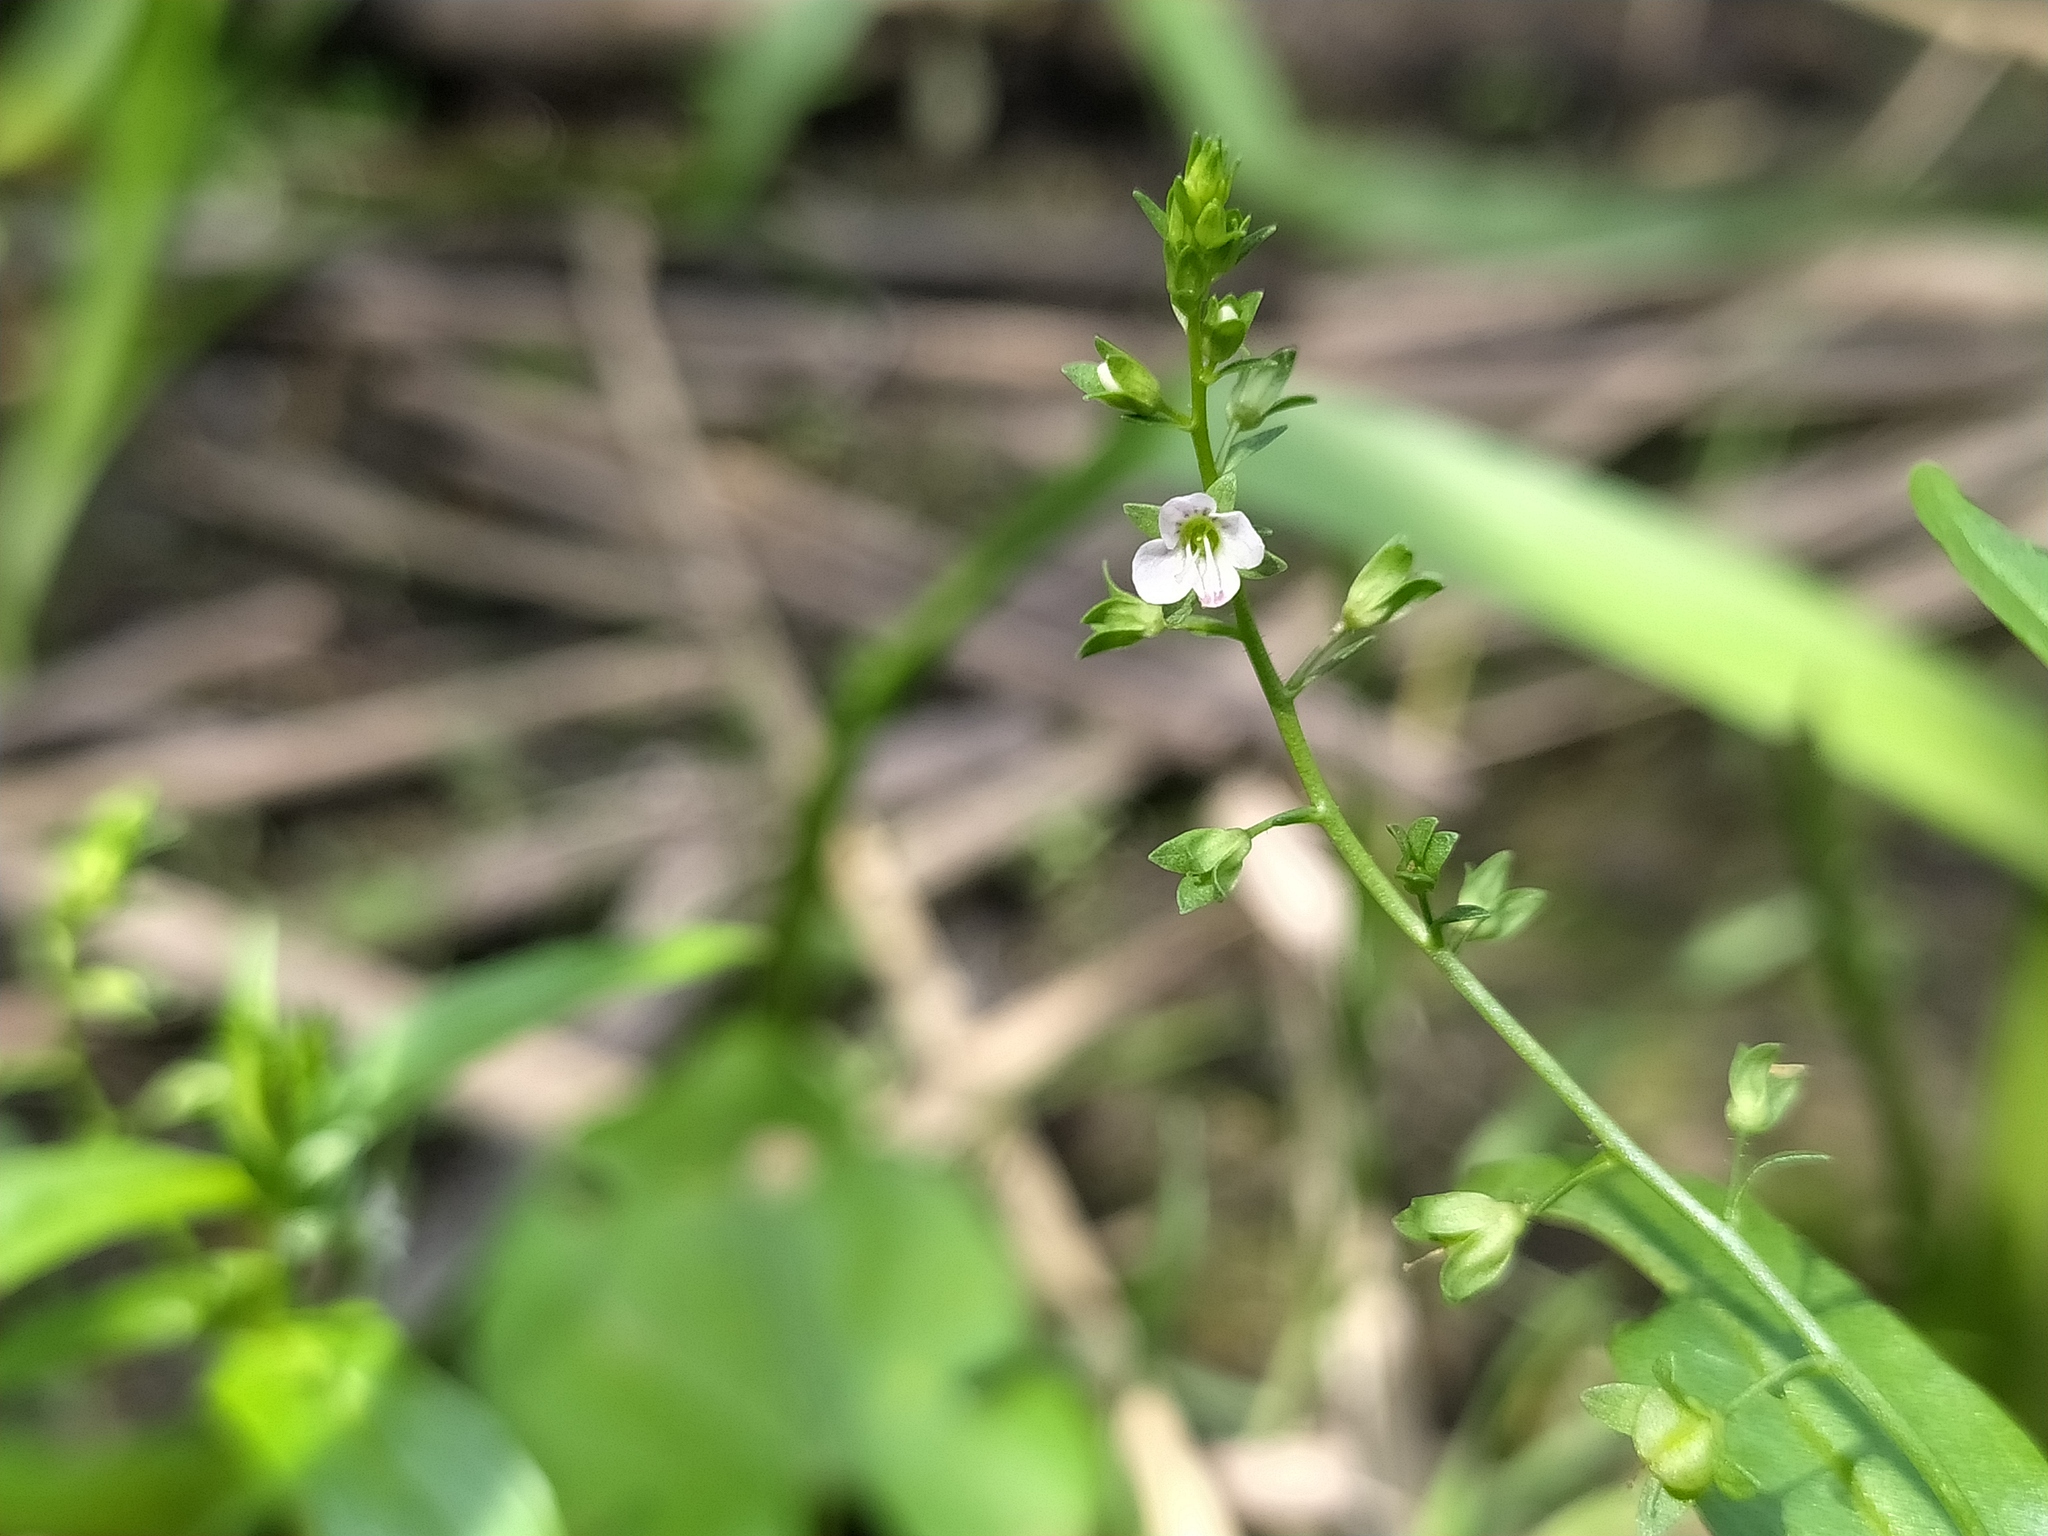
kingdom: Plantae
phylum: Tracheophyta
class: Magnoliopsida
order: Lamiales
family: Plantaginaceae
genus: Veronica
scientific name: Veronica catenata
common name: Pink water-speedwell
